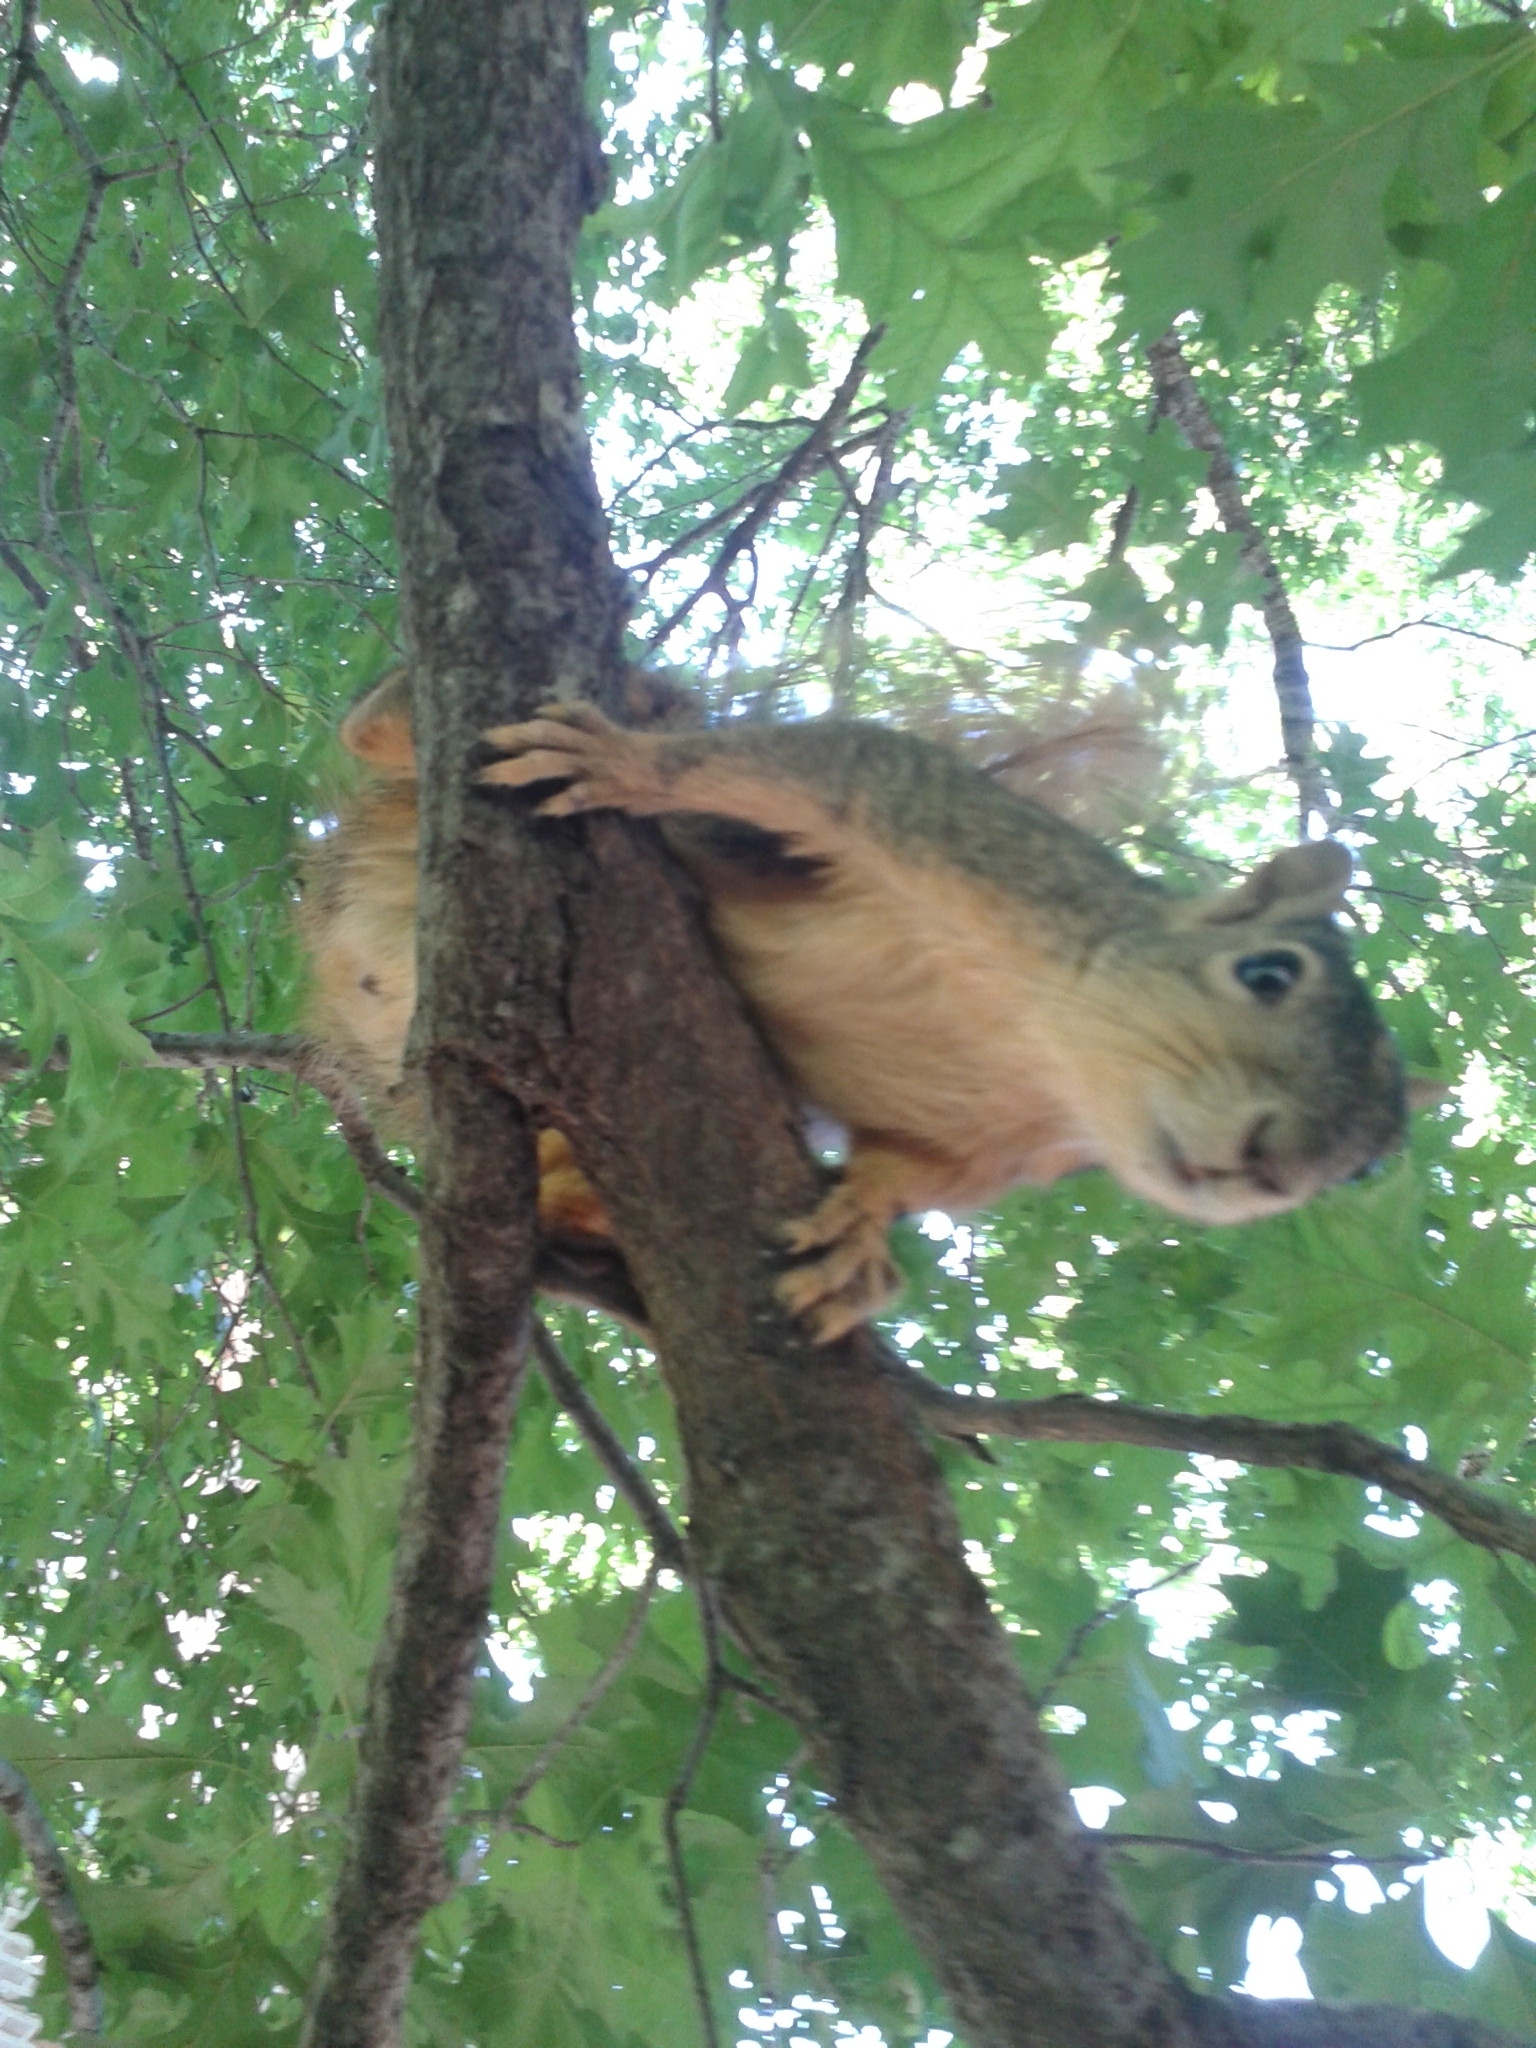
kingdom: Animalia
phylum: Chordata
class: Mammalia
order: Rodentia
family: Sciuridae
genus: Sciurus
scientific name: Sciurus niger
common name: Fox squirrel
